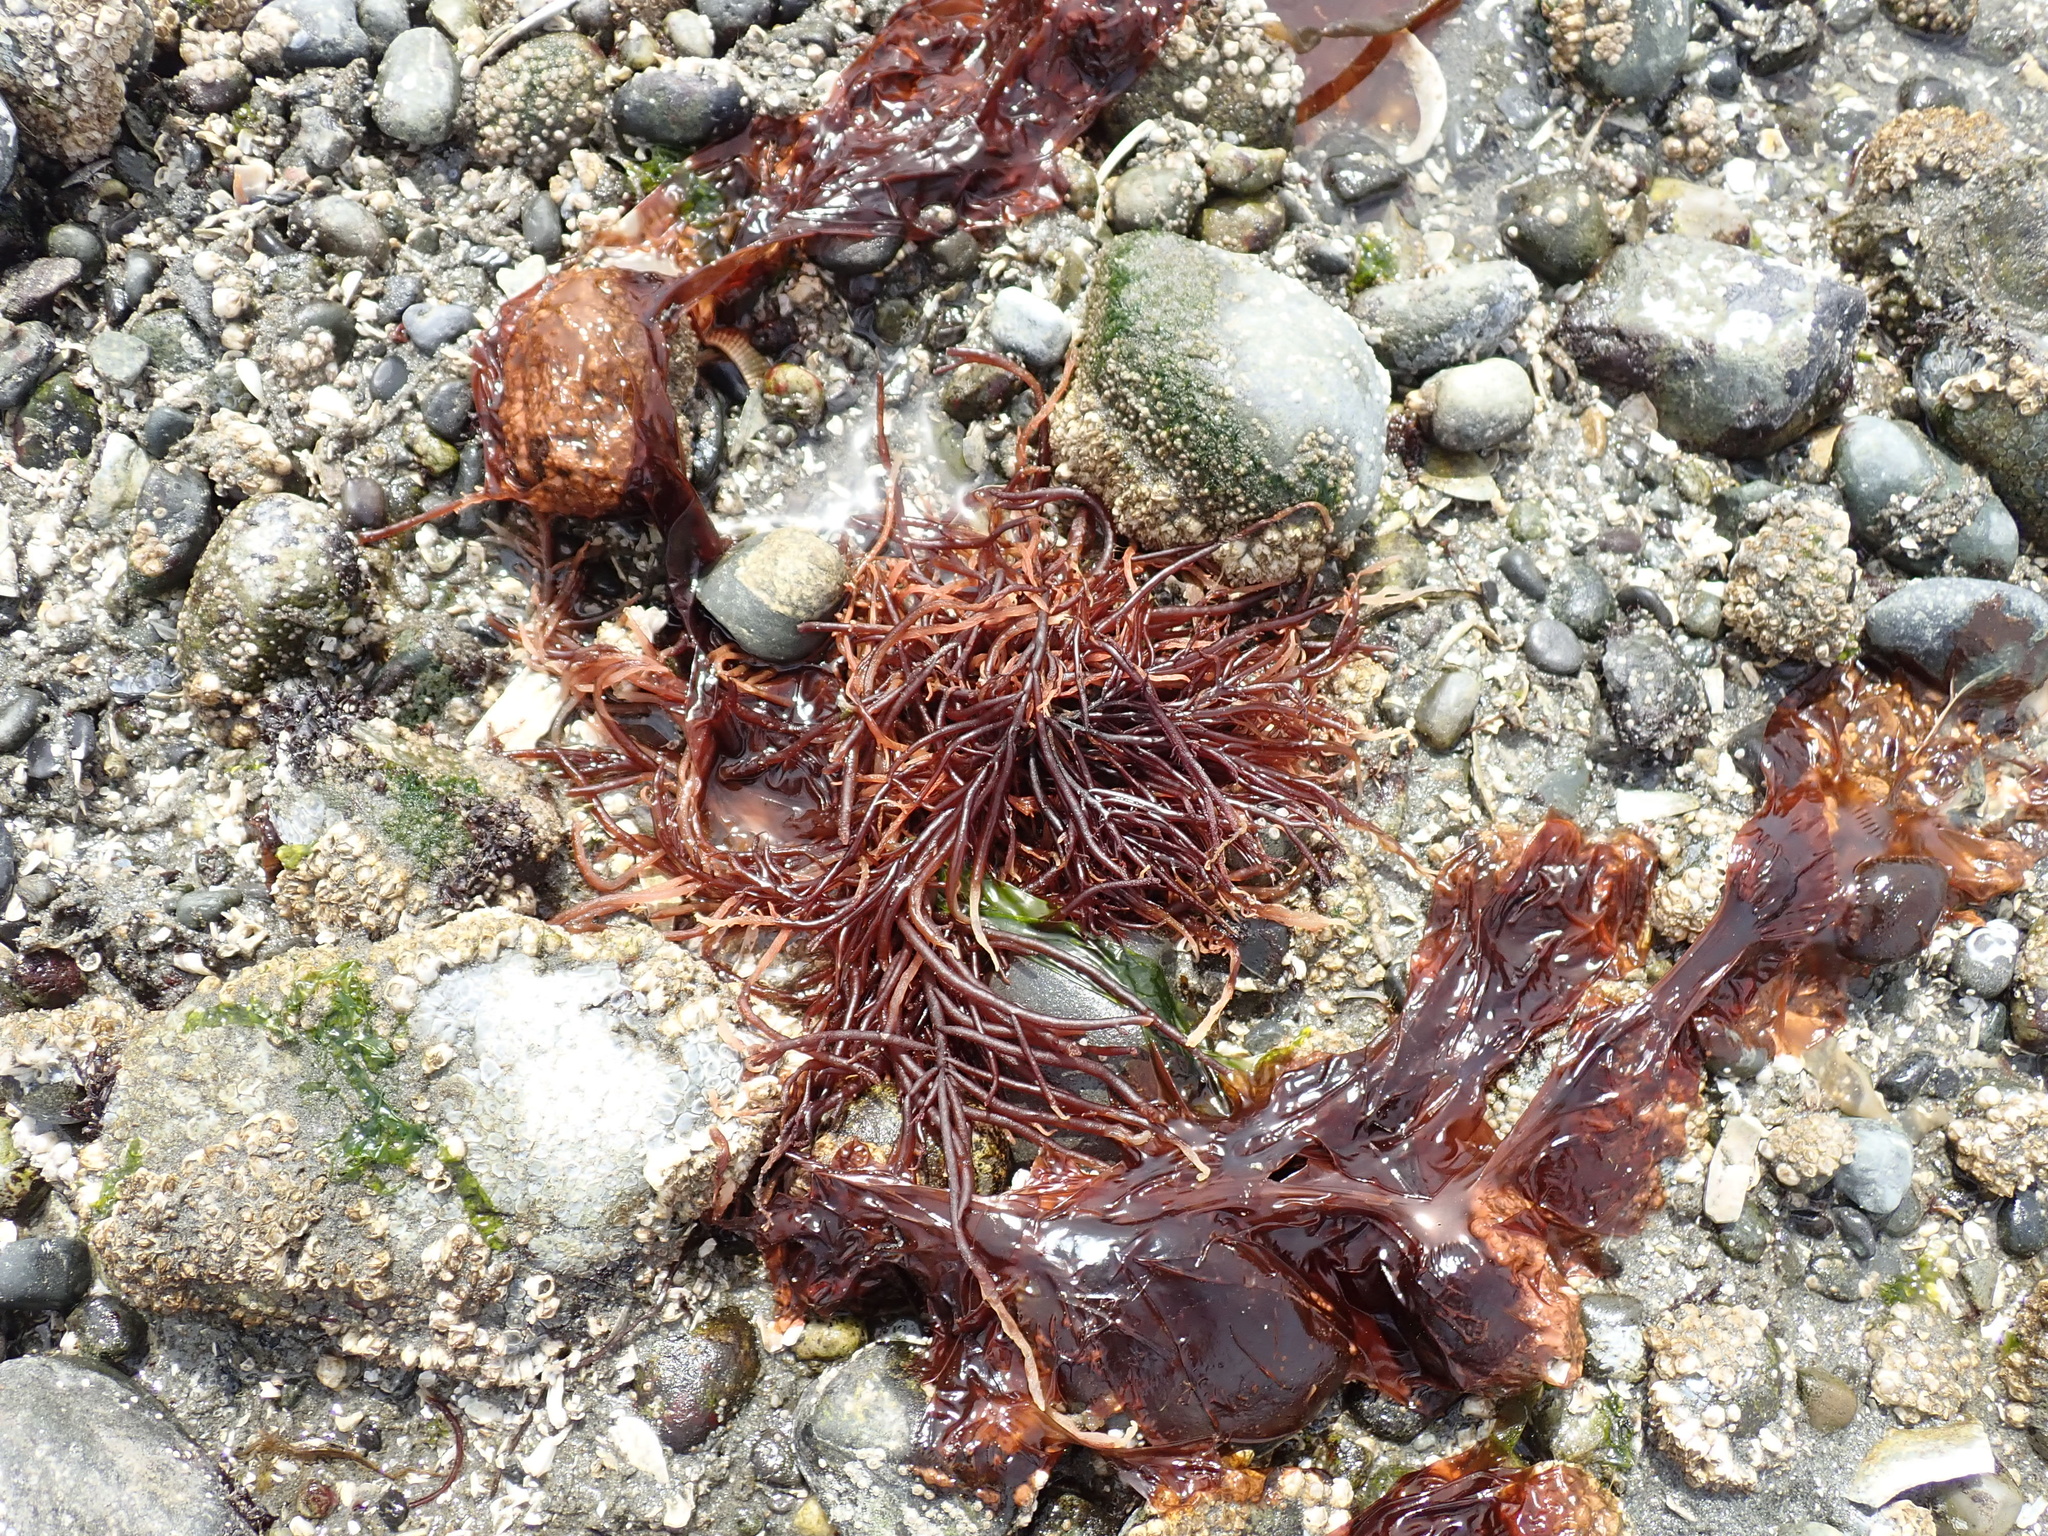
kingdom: Plantae
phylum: Rhodophyta
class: Florideophyceae
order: Gigartinales
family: Solieriaceae
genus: Sarcodiotheca
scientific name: Sarcodiotheca gaudichaudii
